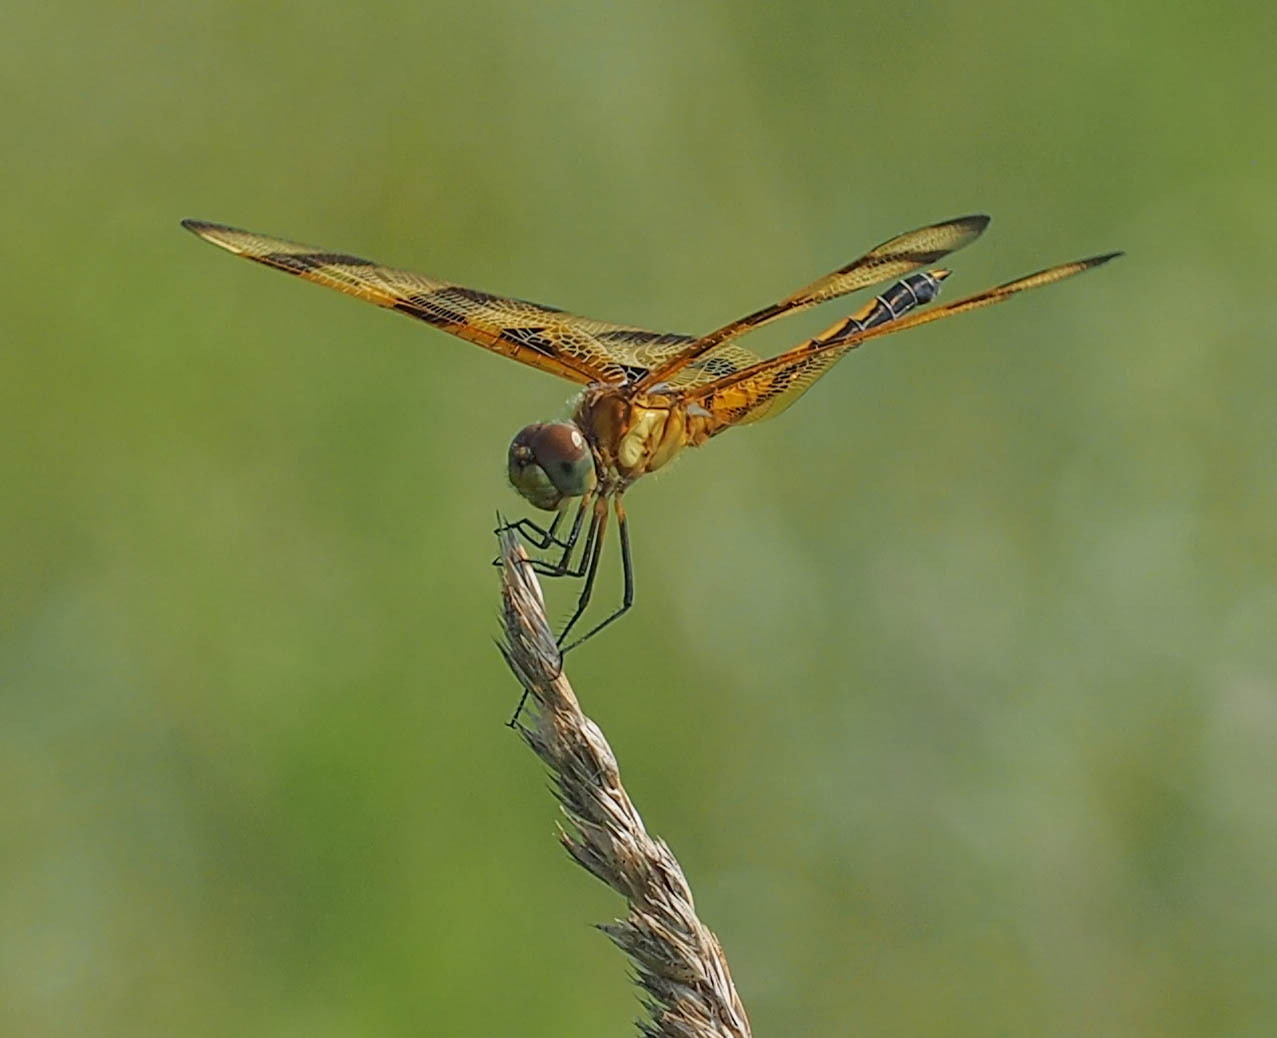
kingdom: Animalia
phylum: Arthropoda
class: Insecta
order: Odonata
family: Libellulidae
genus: Celithemis
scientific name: Celithemis eponina
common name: Halloween pennant
